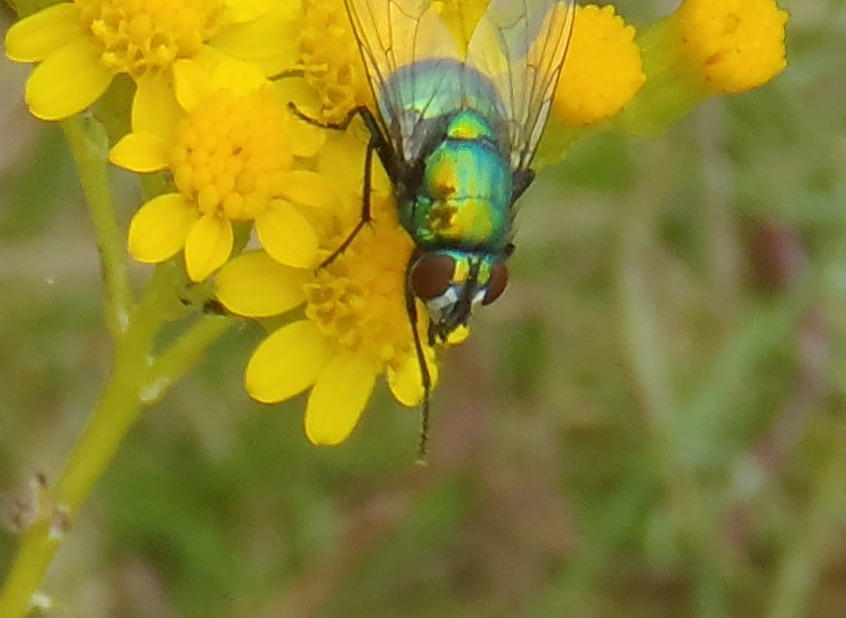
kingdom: Animalia
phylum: Arthropoda
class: Insecta
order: Diptera
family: Muscidae
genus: Neomyia
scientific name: Neomyia
